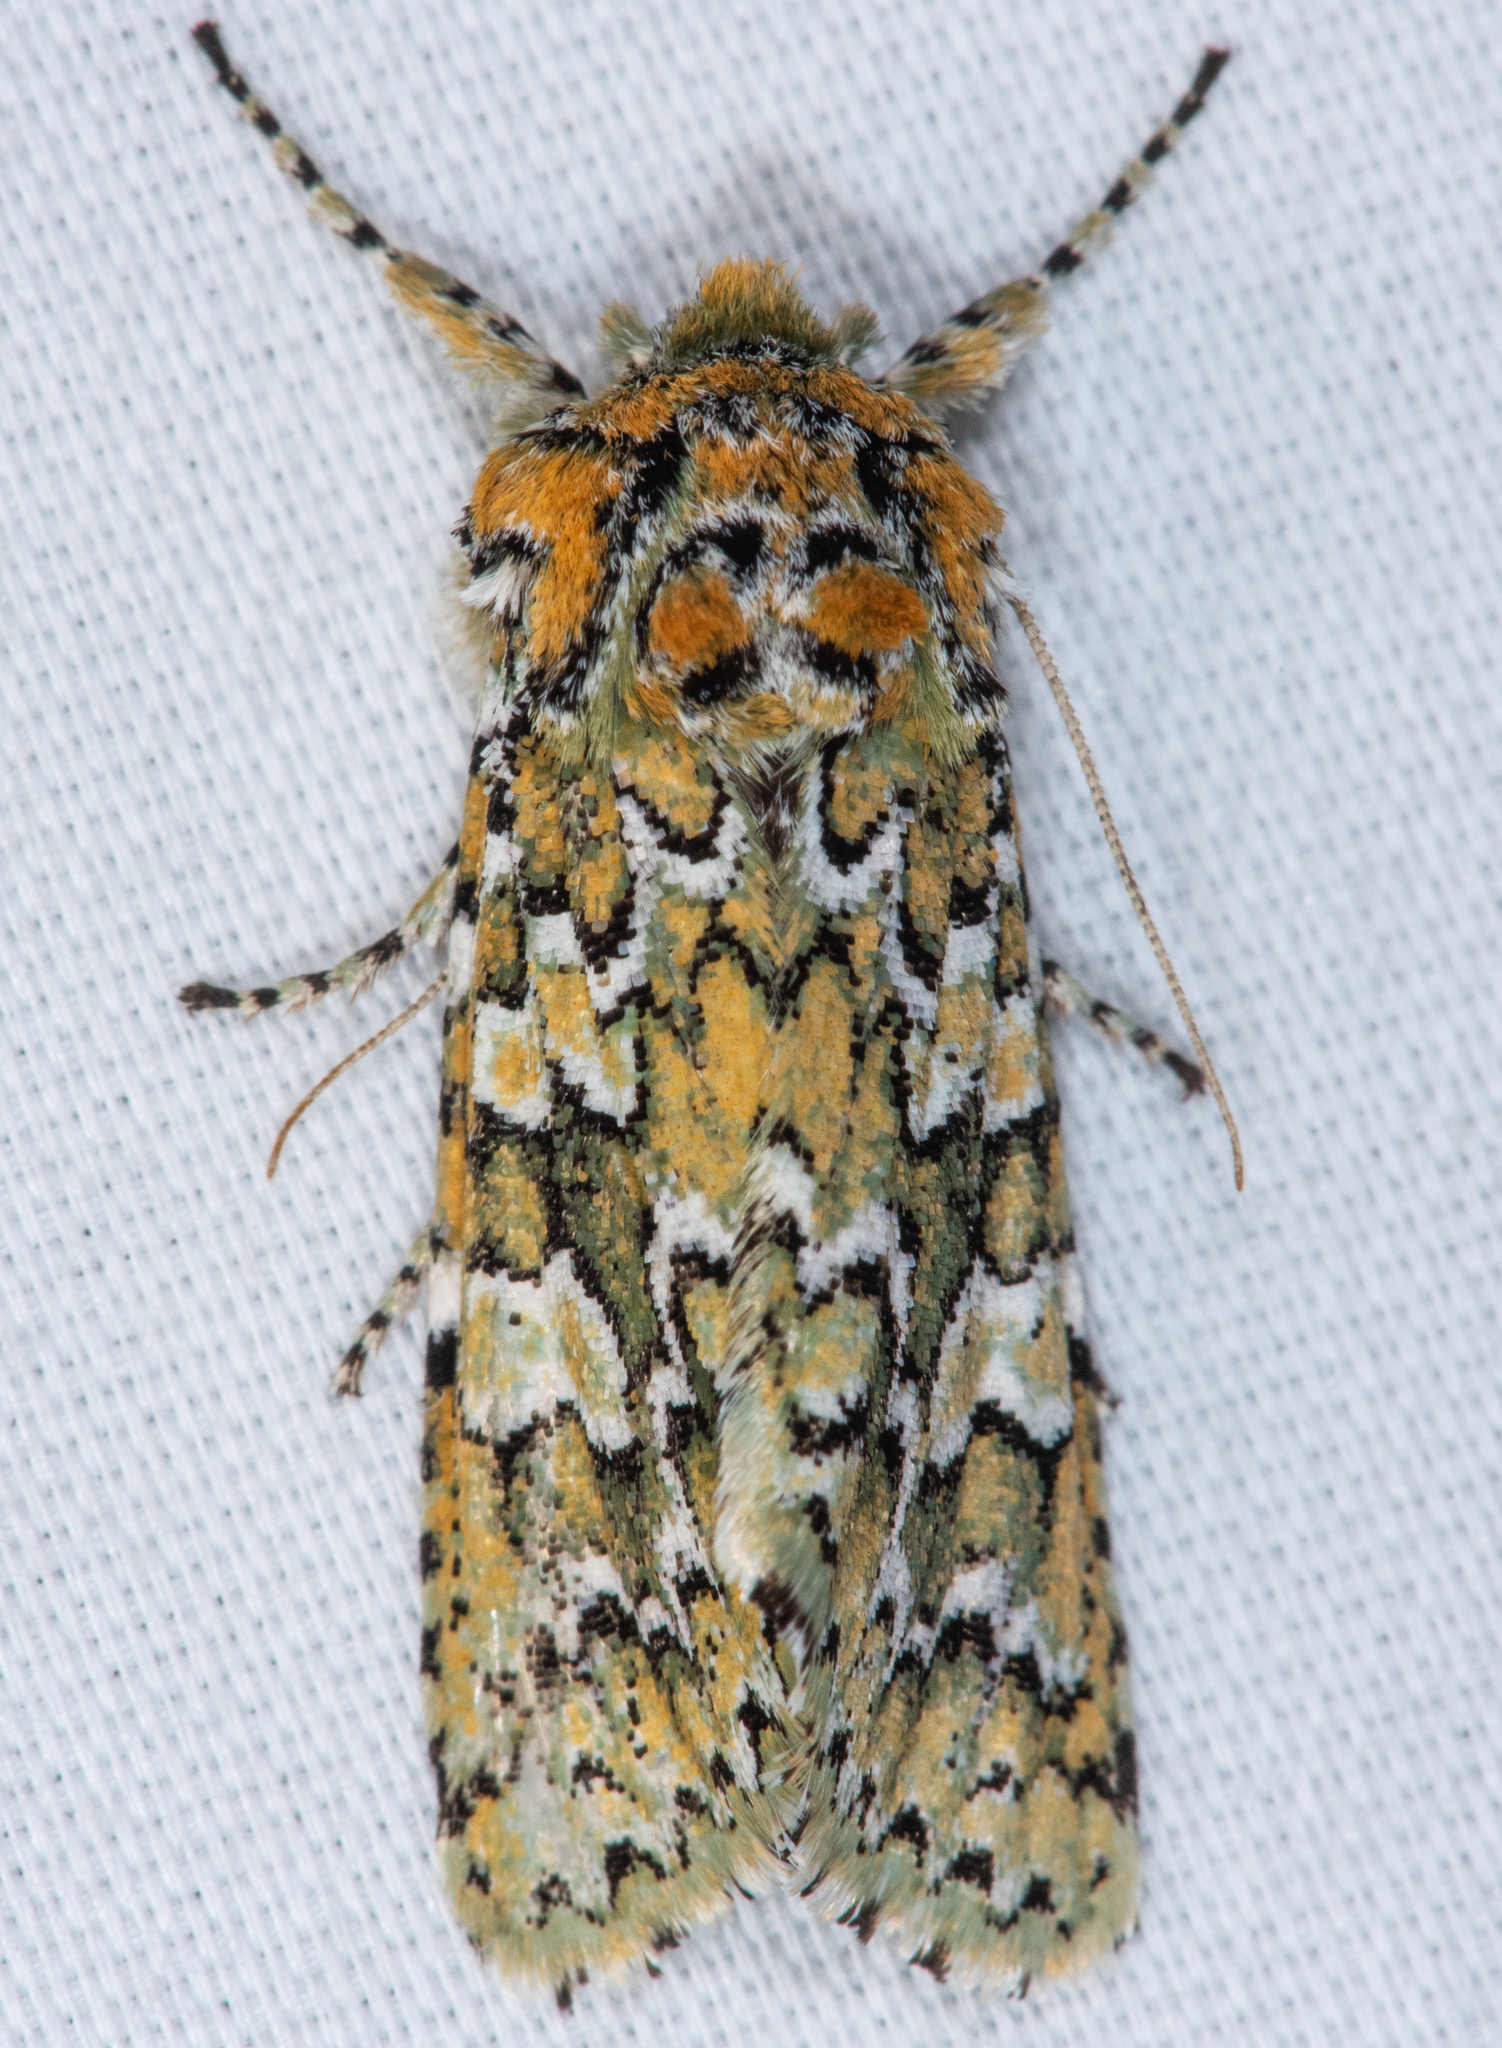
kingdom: Animalia
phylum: Arthropoda
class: Insecta
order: Lepidoptera
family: Noctuidae
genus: Feralia
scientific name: Feralia februalis
